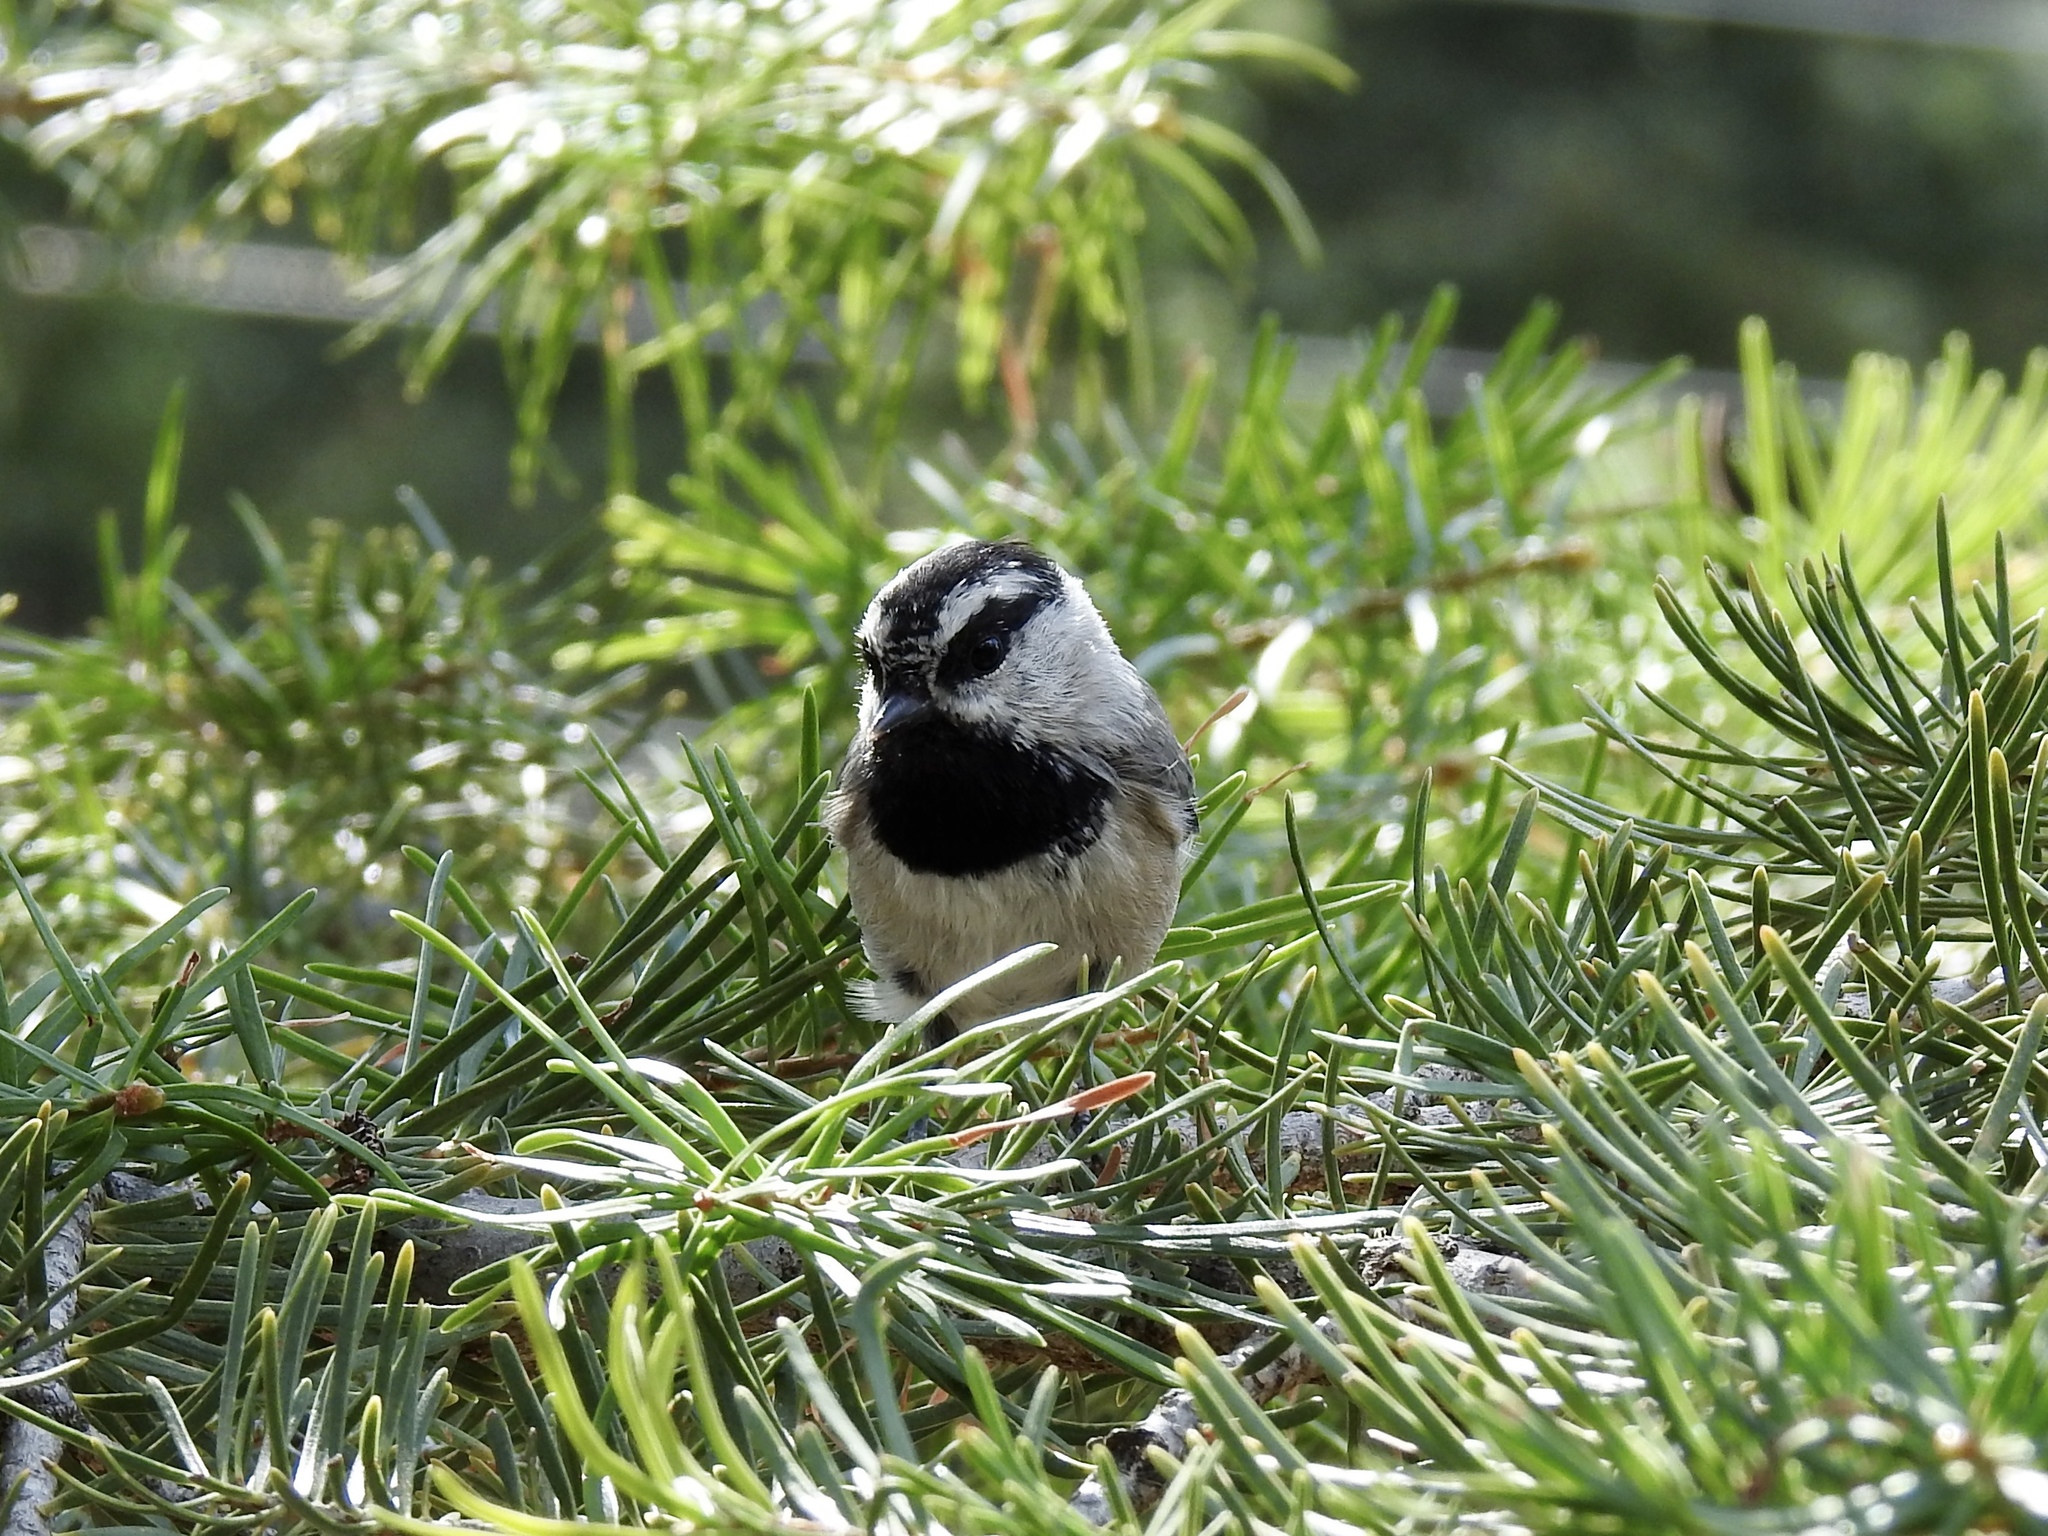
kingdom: Animalia
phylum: Chordata
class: Aves
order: Passeriformes
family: Paridae
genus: Poecile
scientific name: Poecile gambeli
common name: Mountain chickadee
